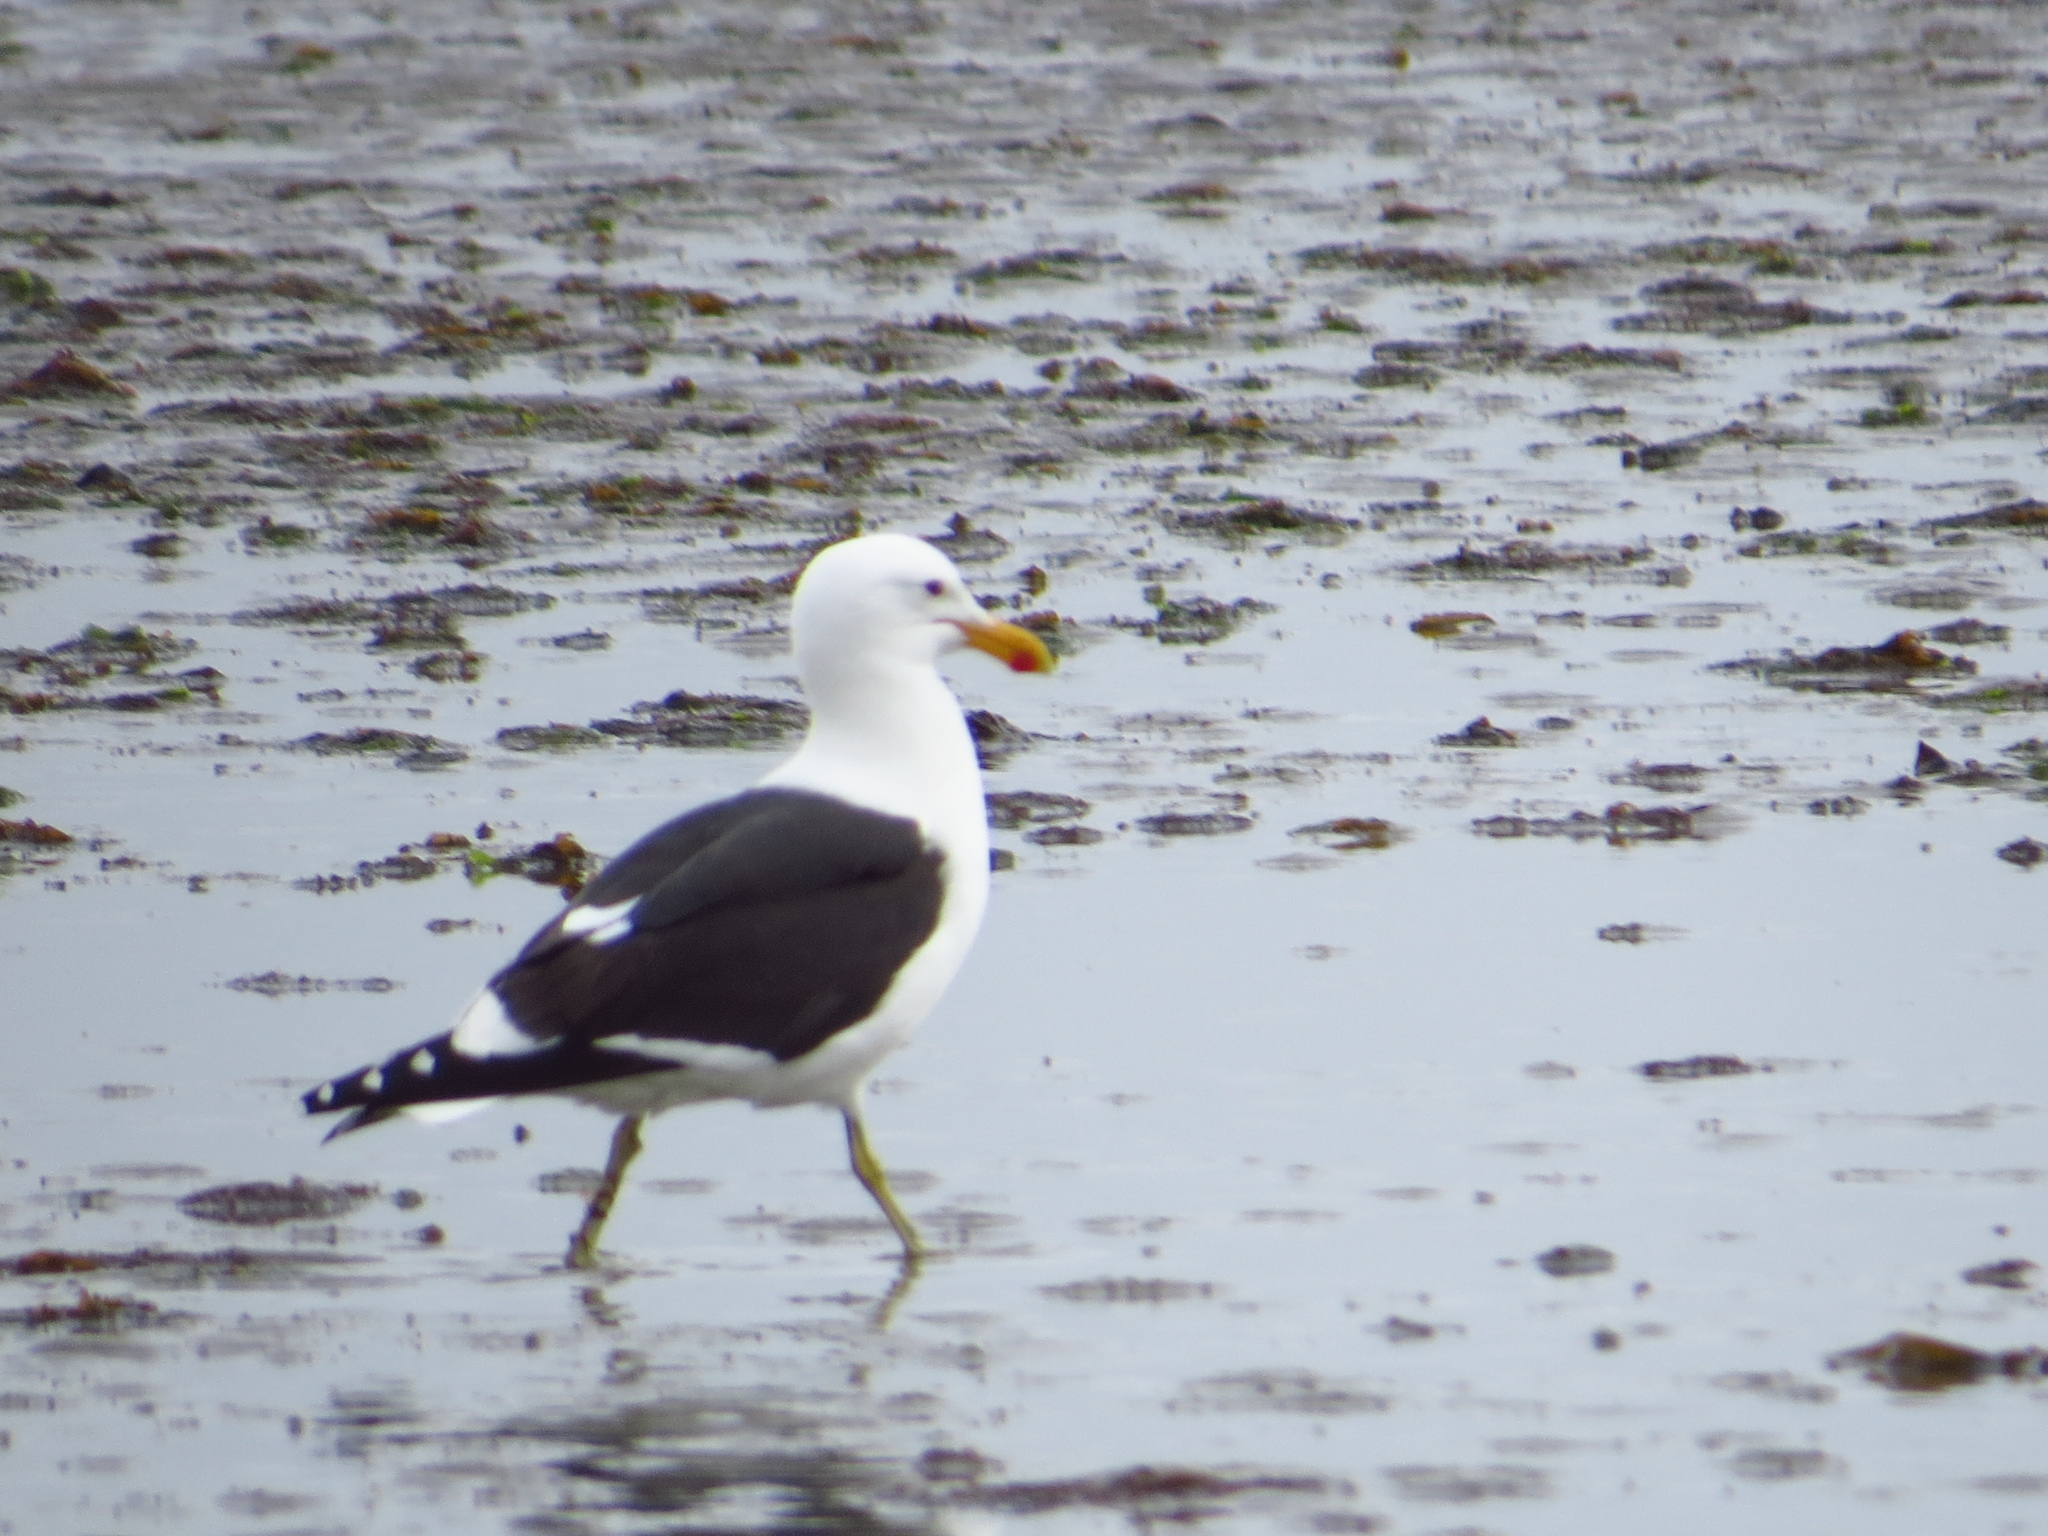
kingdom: Animalia
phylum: Chordata
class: Aves
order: Charadriiformes
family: Laridae
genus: Larus
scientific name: Larus dominicanus
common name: Kelp gull
